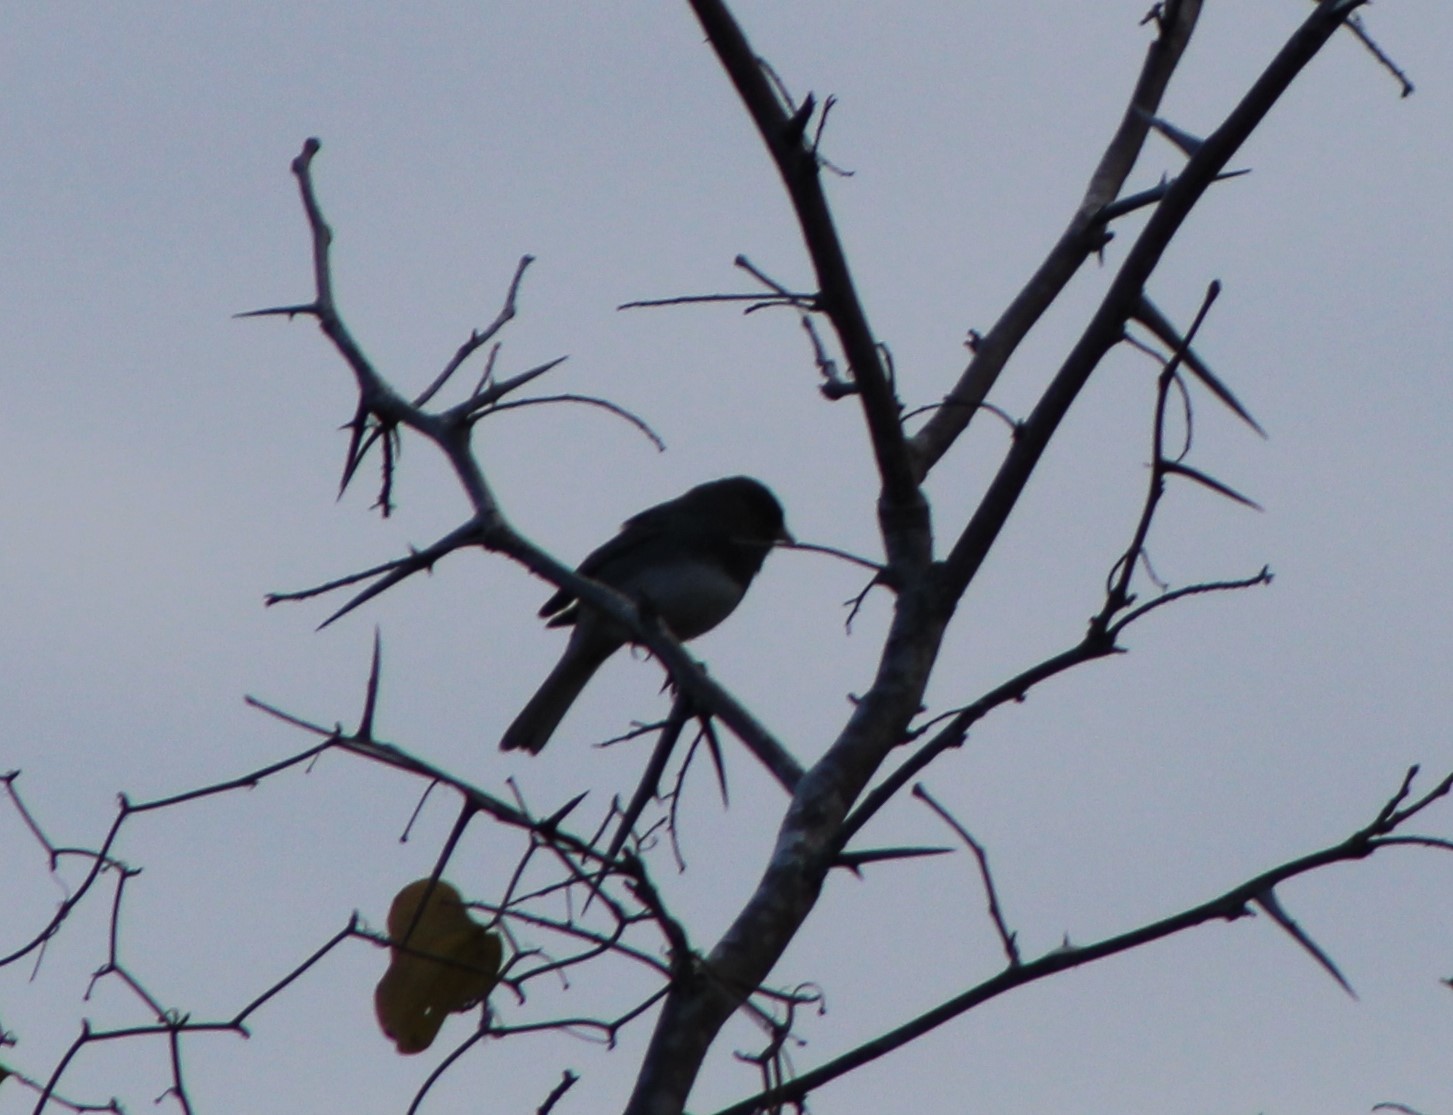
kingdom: Animalia
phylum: Chordata
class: Aves
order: Passeriformes
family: Passerellidae
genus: Junco
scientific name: Junco hyemalis
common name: Dark-eyed junco
